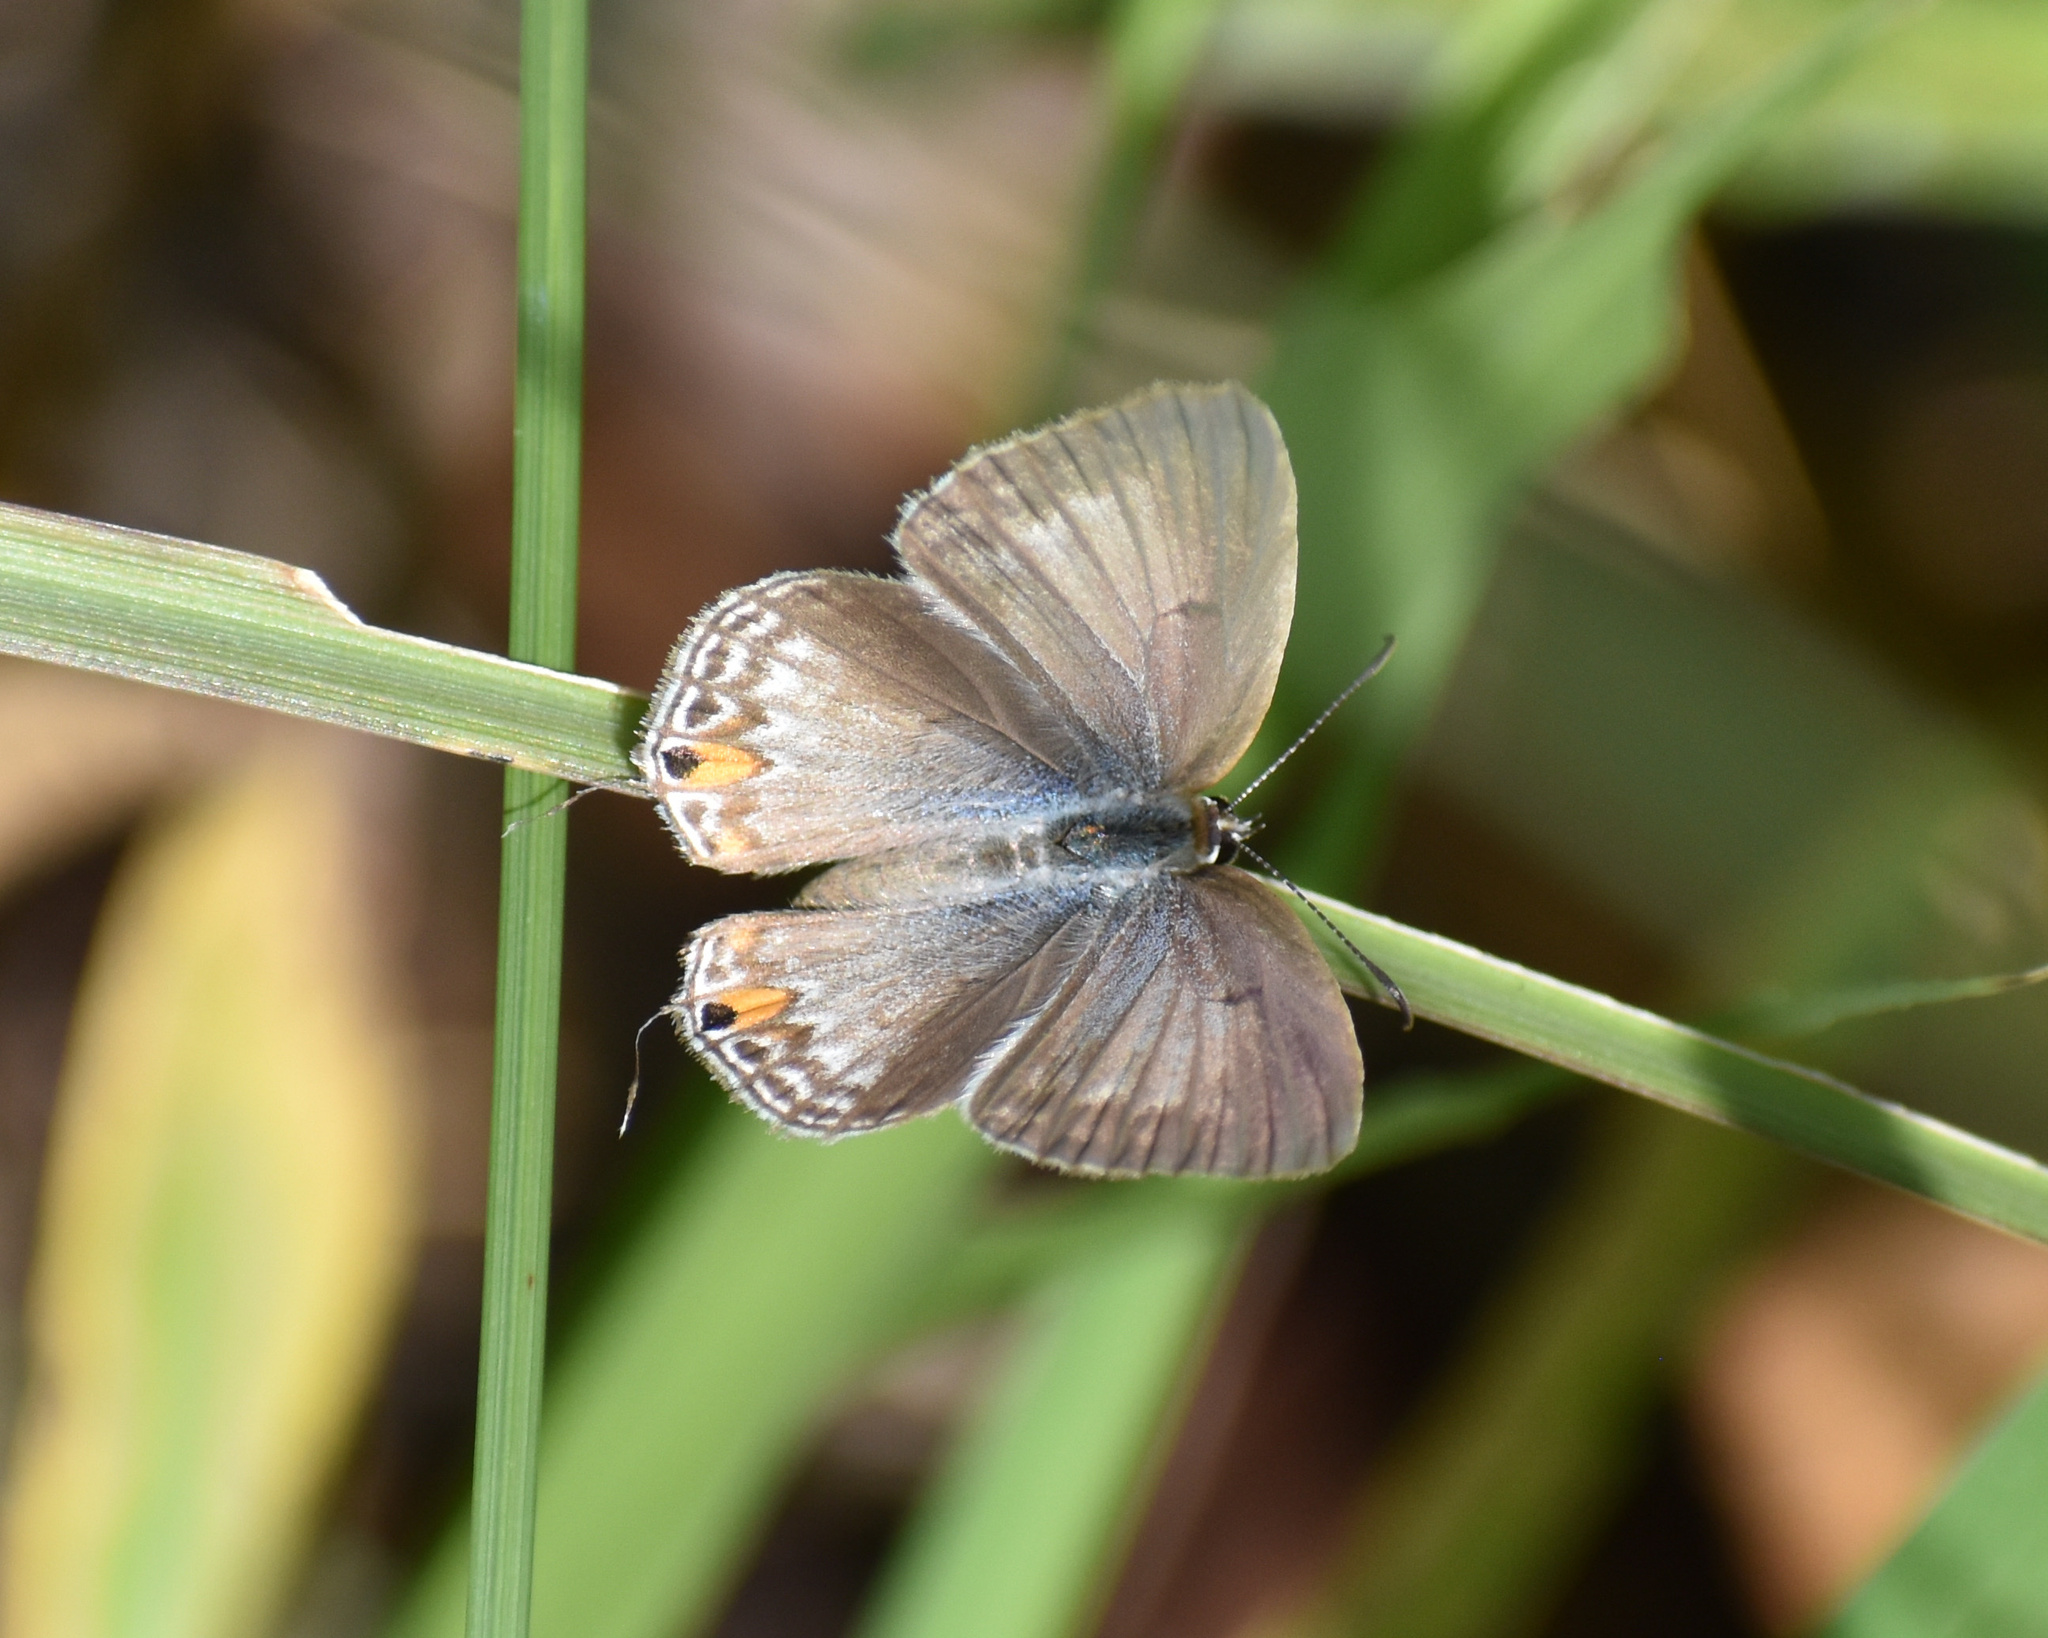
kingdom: Animalia
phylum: Arthropoda
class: Insecta
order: Lepidoptera
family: Lycaenidae
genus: Euchrysops
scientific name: Euchrysops barkeri
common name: Barker's smoky blue
